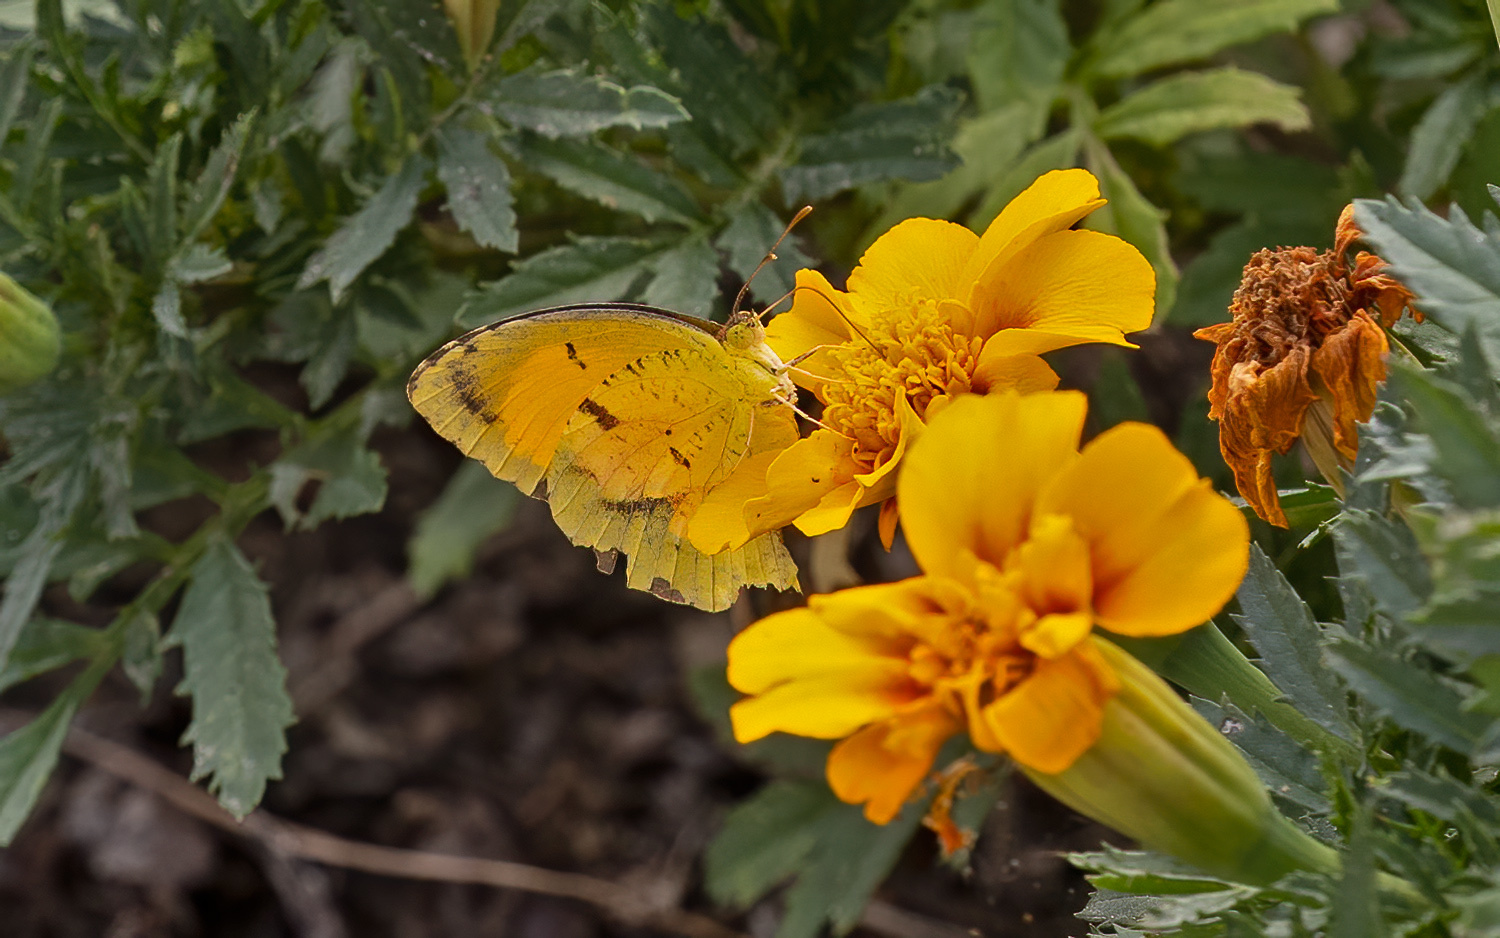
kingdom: Animalia
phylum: Arthropoda
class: Insecta
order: Lepidoptera
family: Pieridae
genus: Abaeis
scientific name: Abaeis nicippe
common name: Sleepy orange
